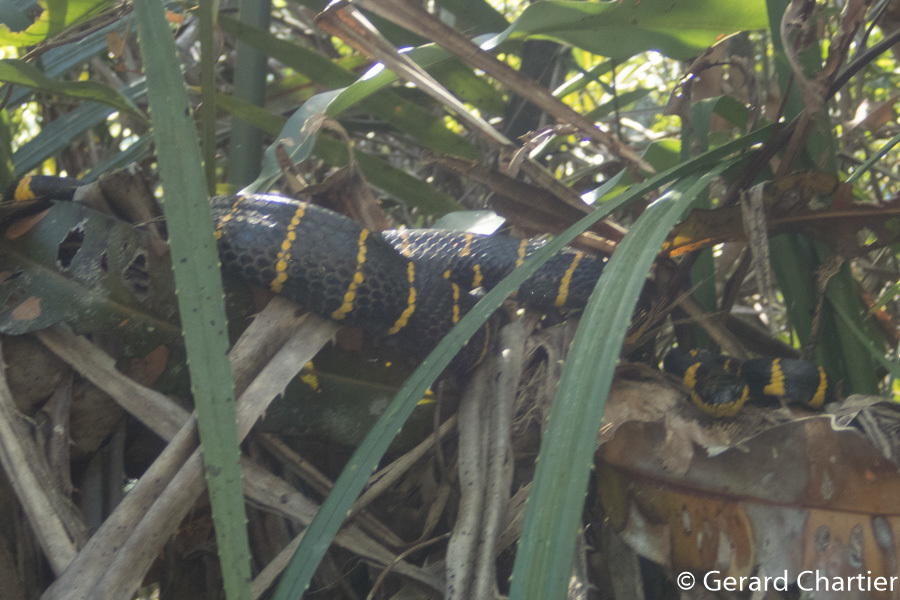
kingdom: Animalia
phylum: Chordata
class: Squamata
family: Colubridae
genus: Boiga
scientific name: Boiga melanota
